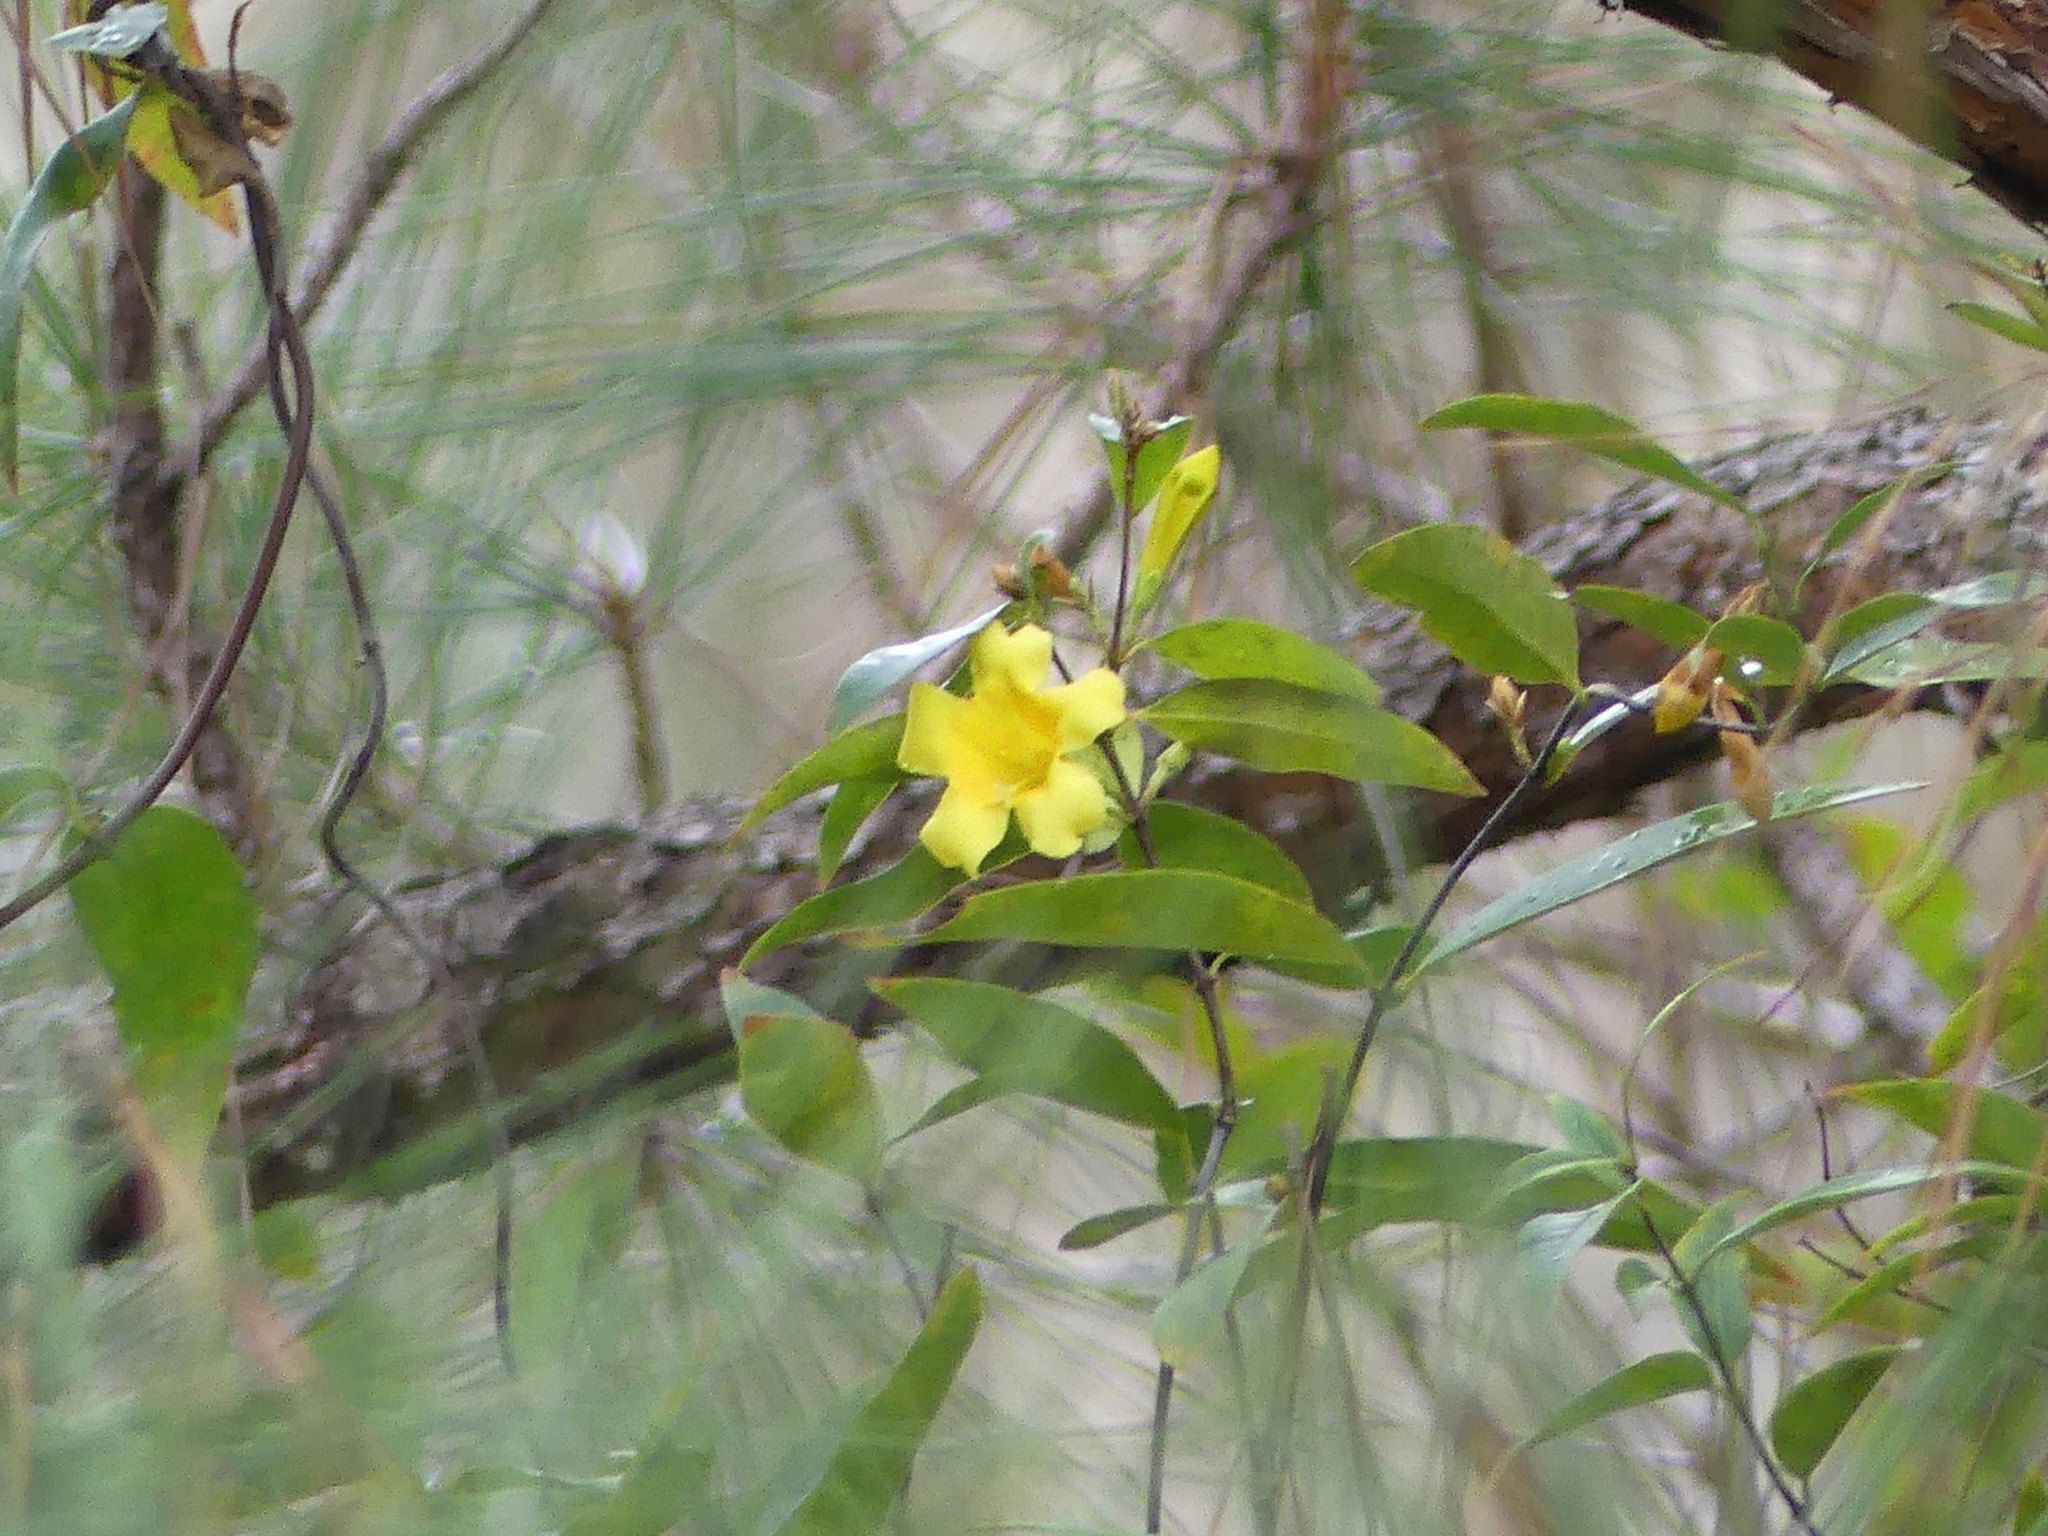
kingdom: Plantae
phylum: Tracheophyta
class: Magnoliopsida
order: Gentianales
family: Gelsemiaceae
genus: Gelsemium
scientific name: Gelsemium sempervirens
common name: Carolina-jasmine
